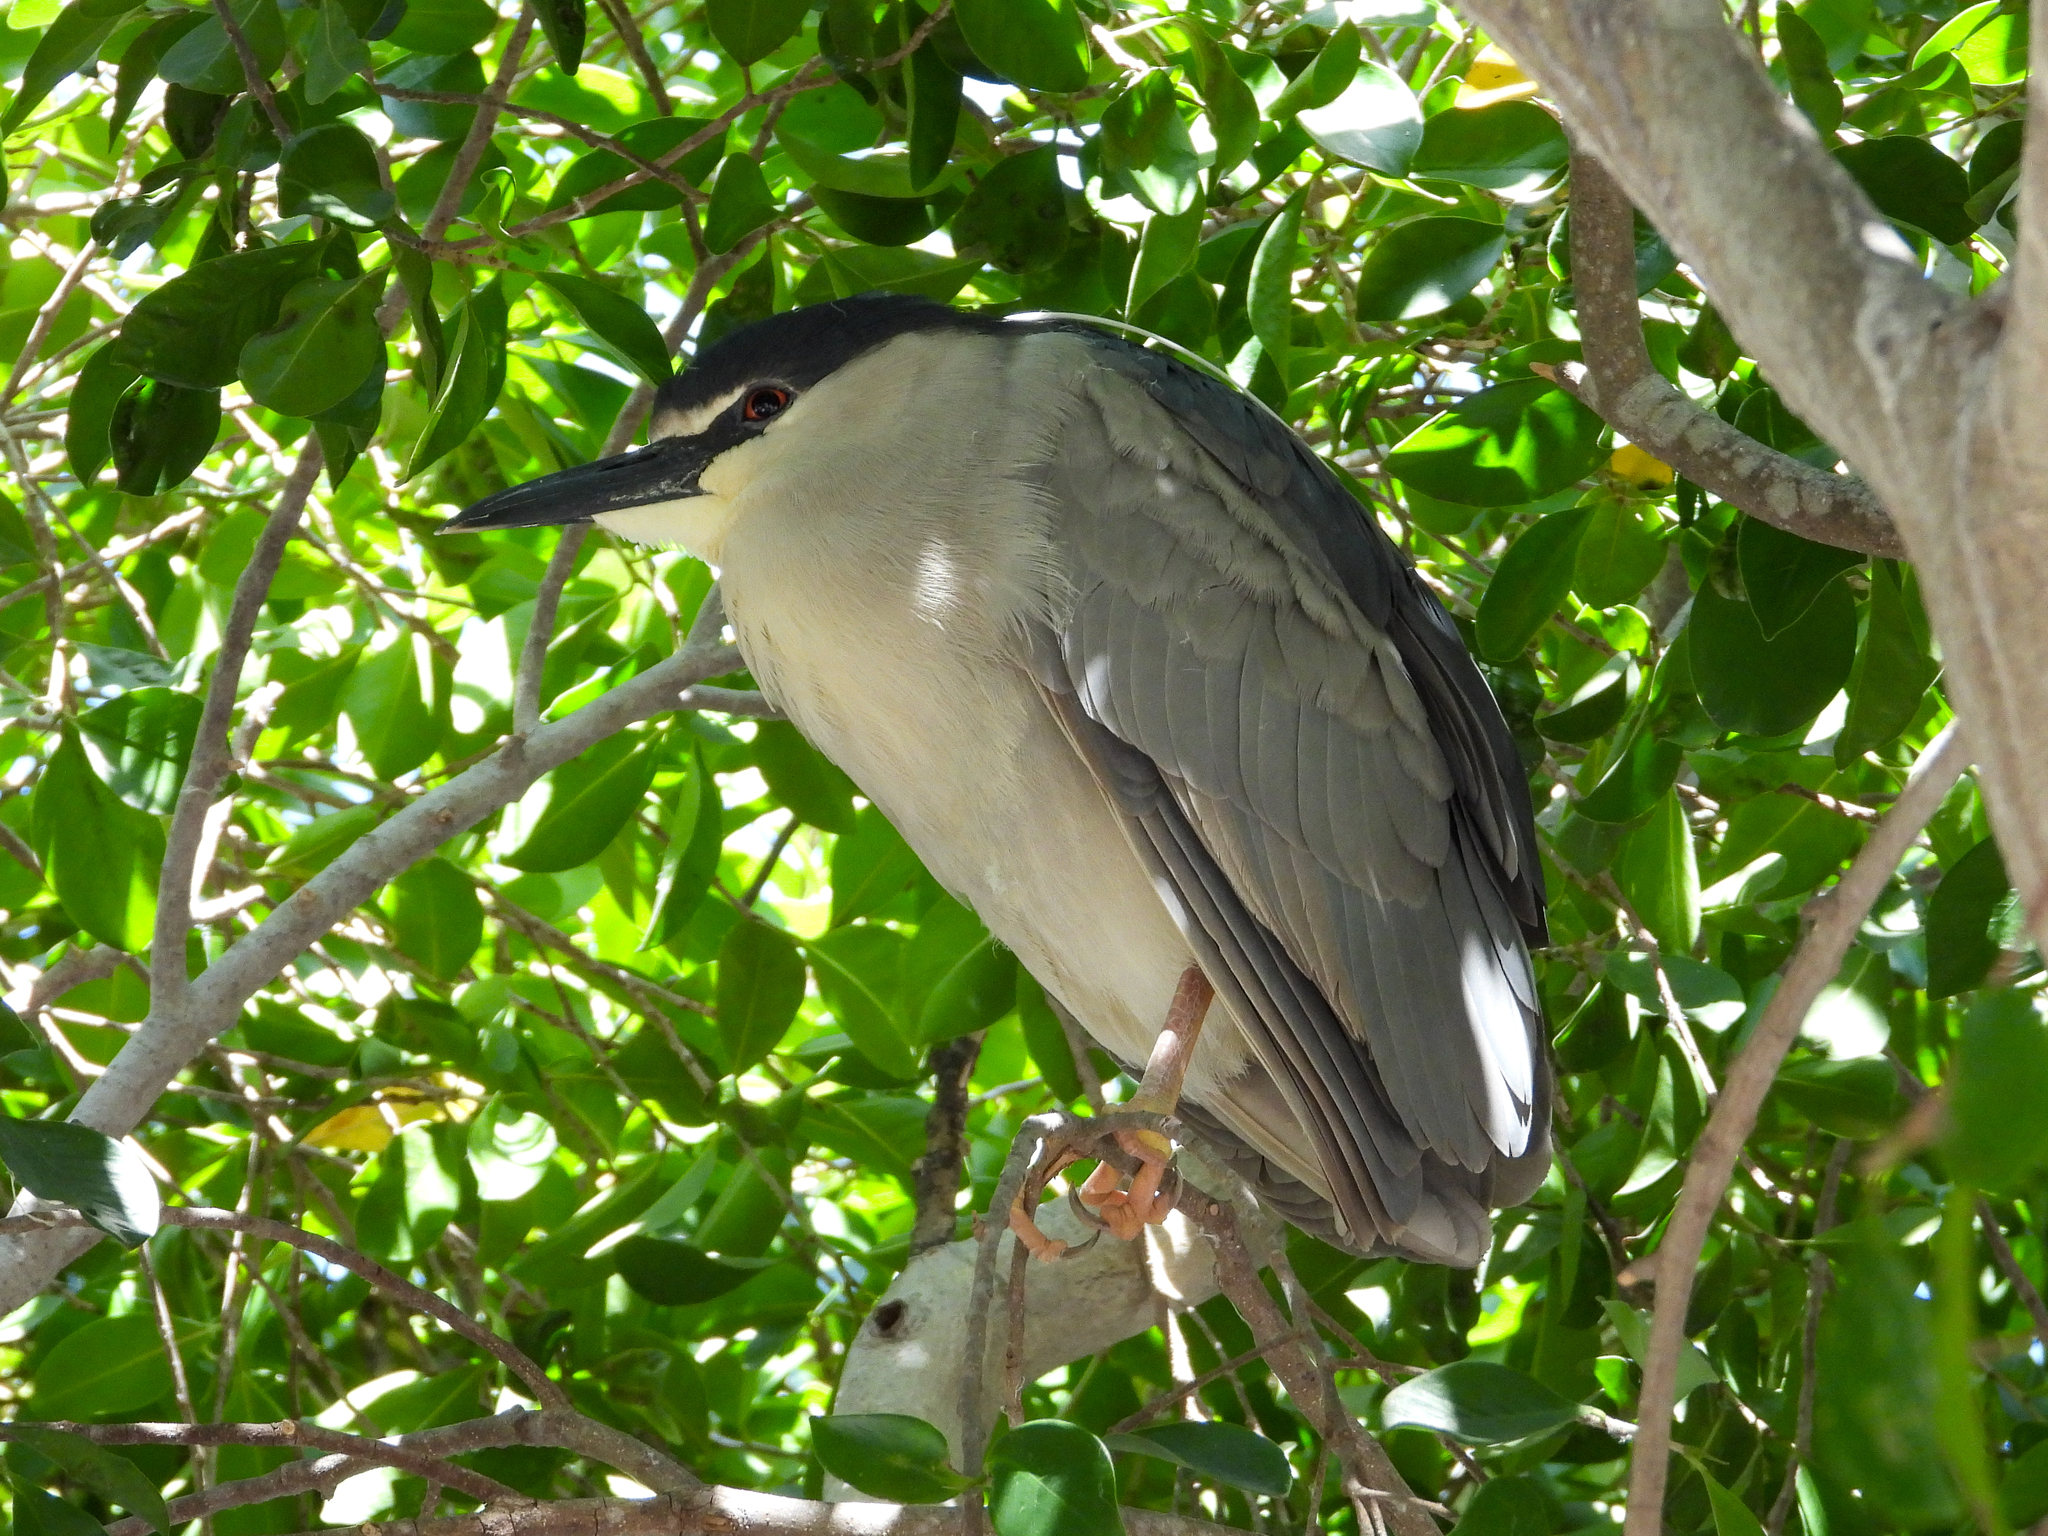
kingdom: Animalia
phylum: Chordata
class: Aves
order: Pelecaniformes
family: Ardeidae
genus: Nycticorax
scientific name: Nycticorax nycticorax
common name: Black-crowned night heron
